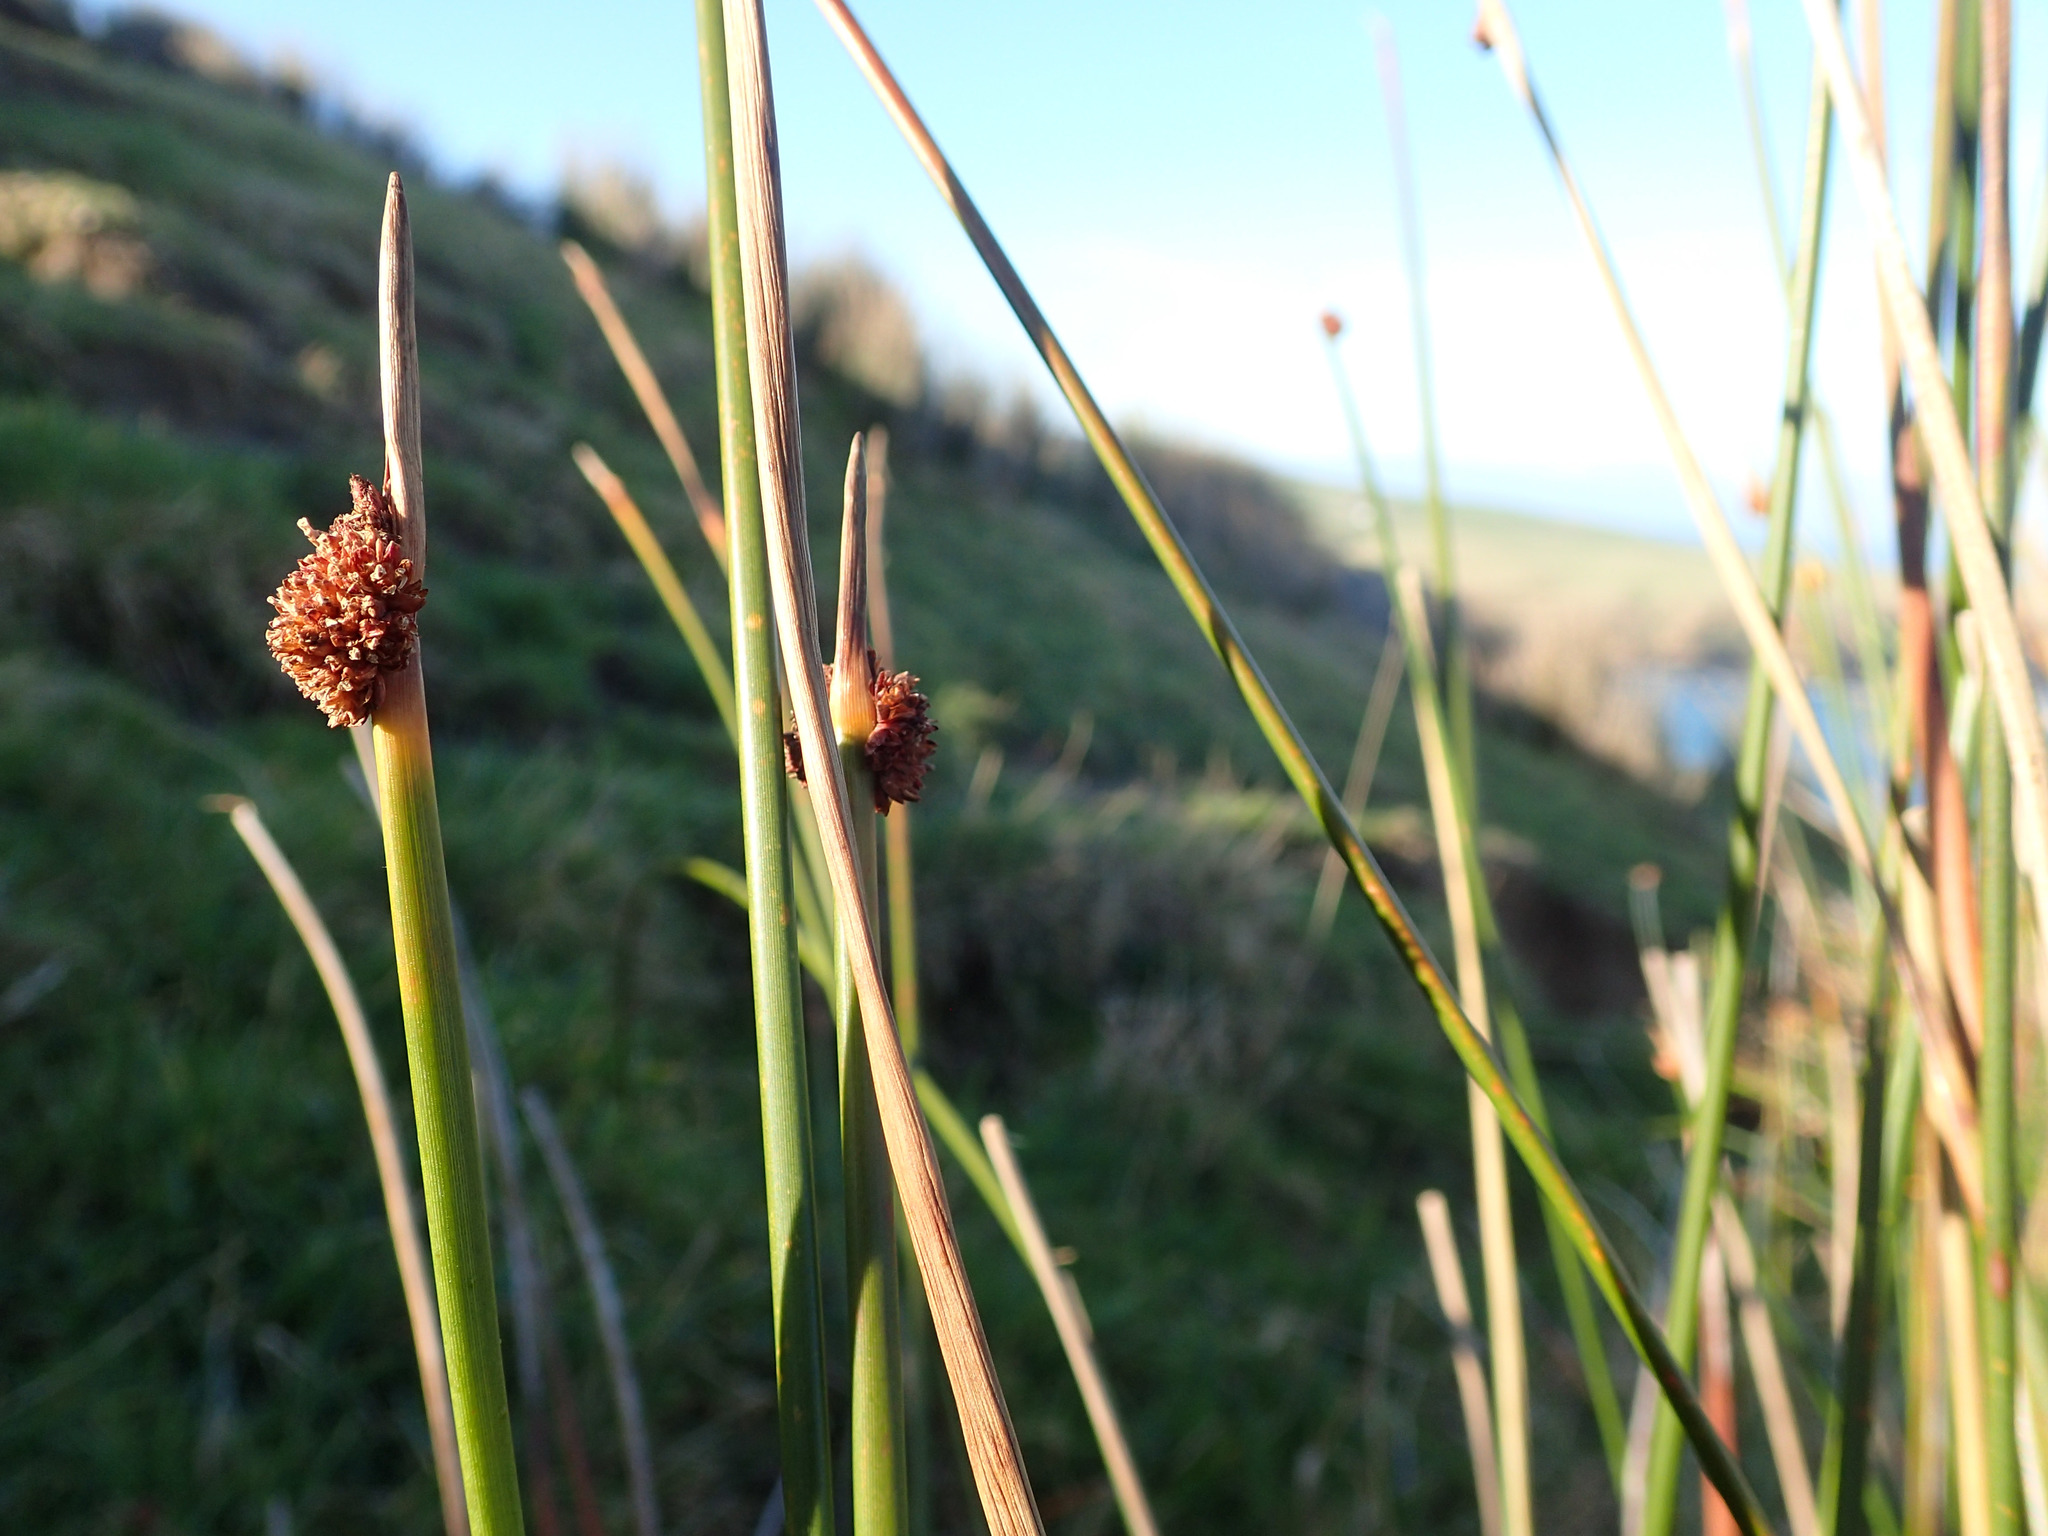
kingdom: Plantae
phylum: Tracheophyta
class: Liliopsida
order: Poales
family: Cyperaceae
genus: Ficinia
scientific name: Ficinia nodosa
